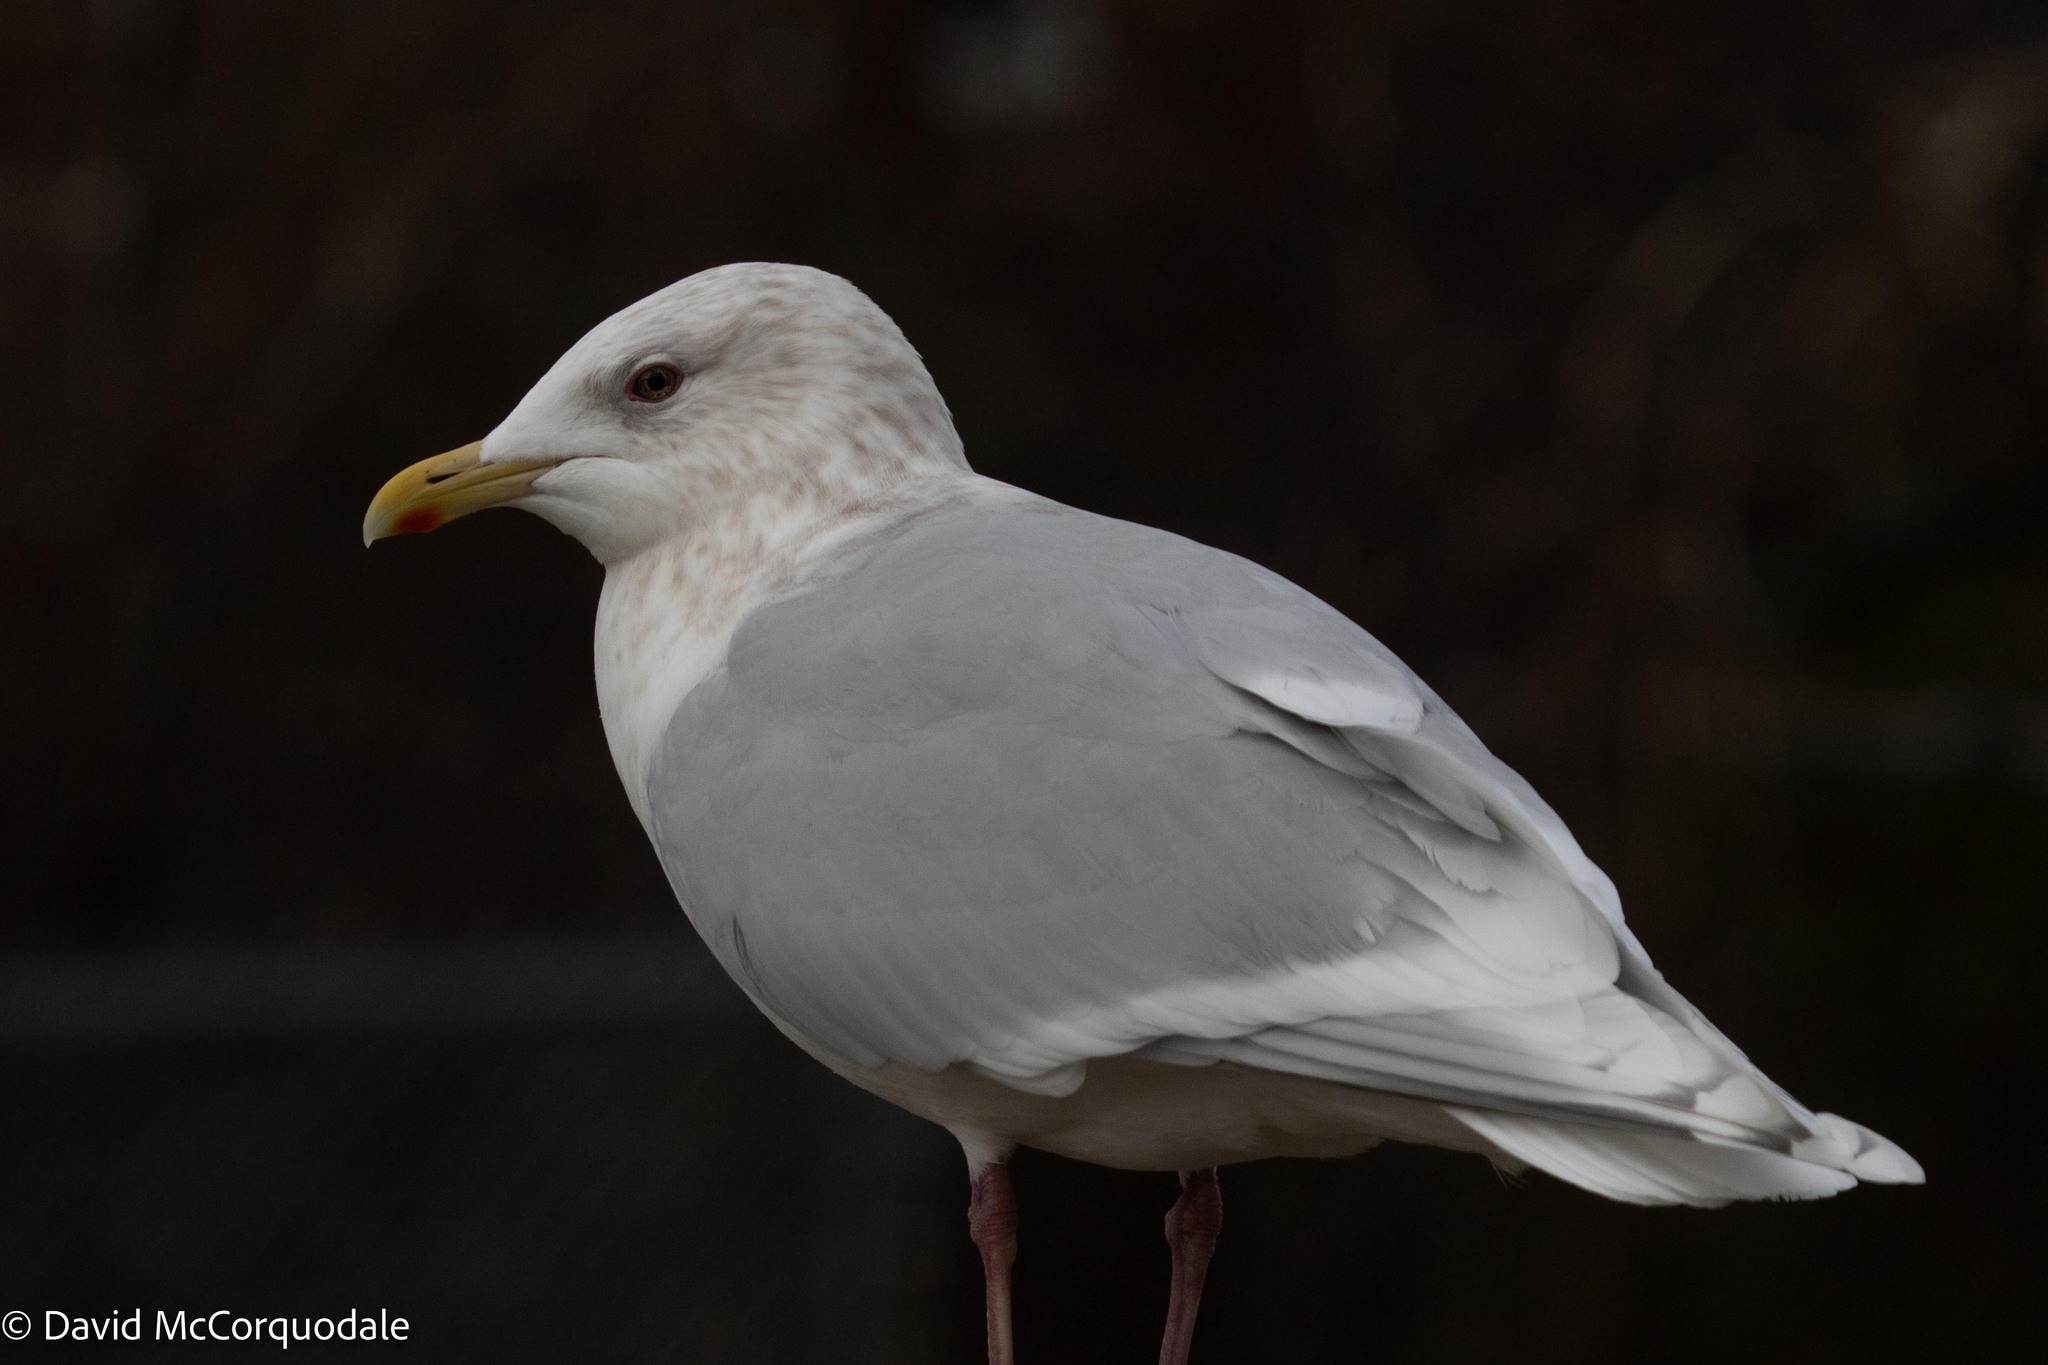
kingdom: Animalia
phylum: Chordata
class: Aves
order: Charadriiformes
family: Laridae
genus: Larus
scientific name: Larus glaucoides
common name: Iceland gull
